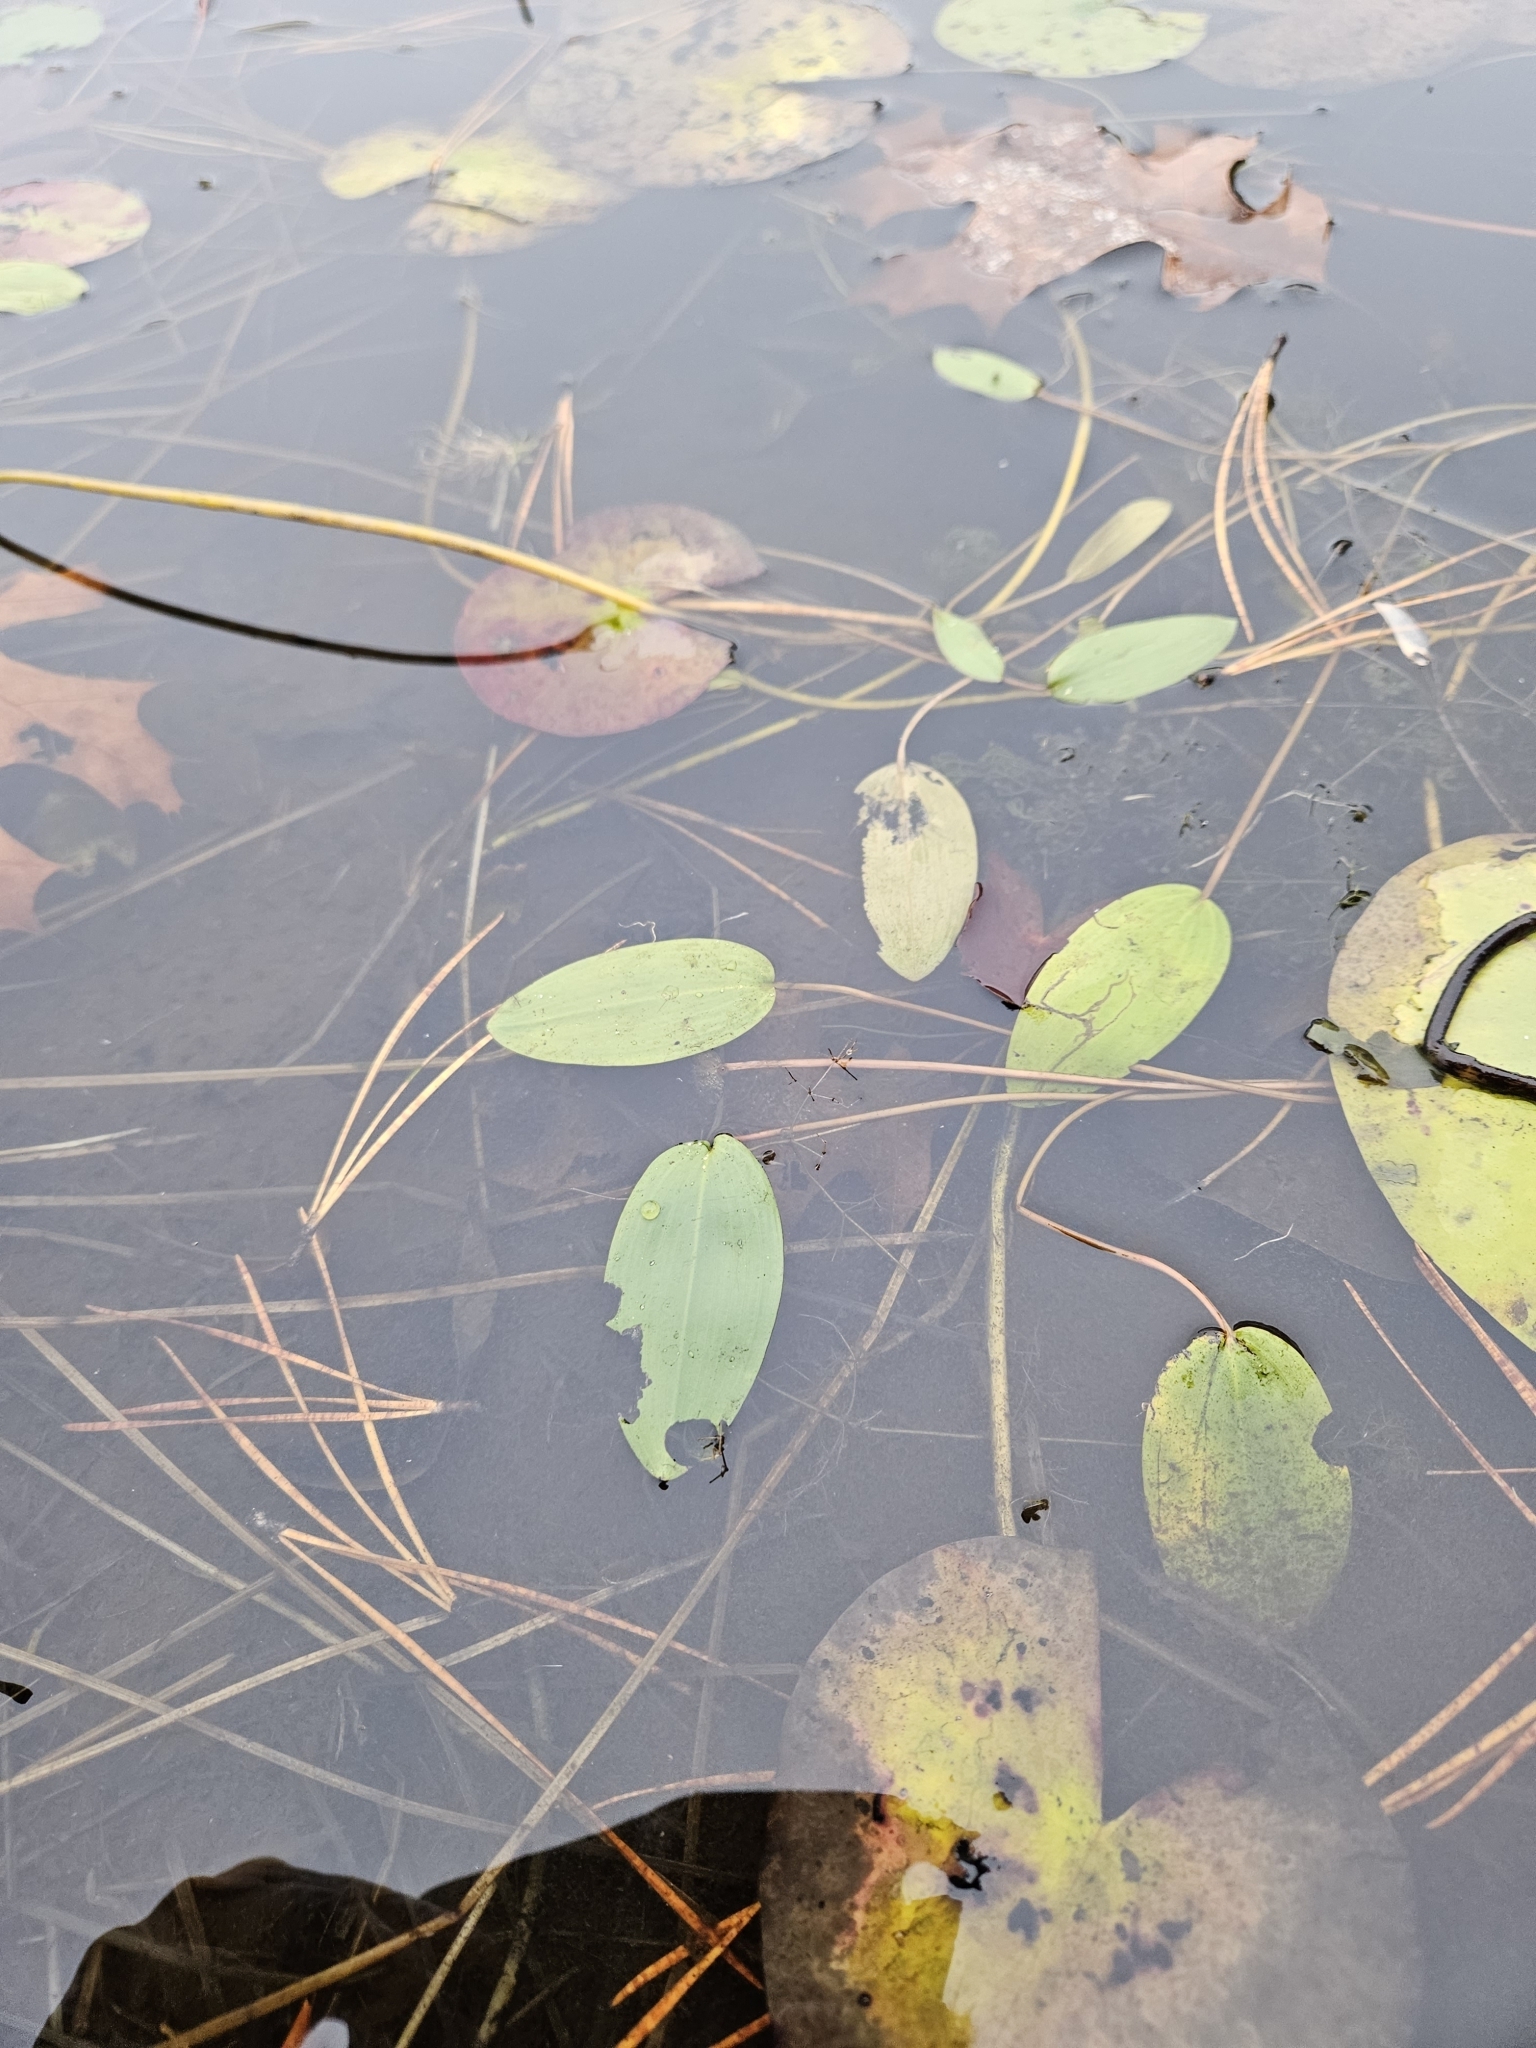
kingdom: Plantae
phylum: Tracheophyta
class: Liliopsida
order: Alismatales
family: Potamogetonaceae
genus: Potamogeton
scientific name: Potamogeton natans
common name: Broad-leaved pondweed
